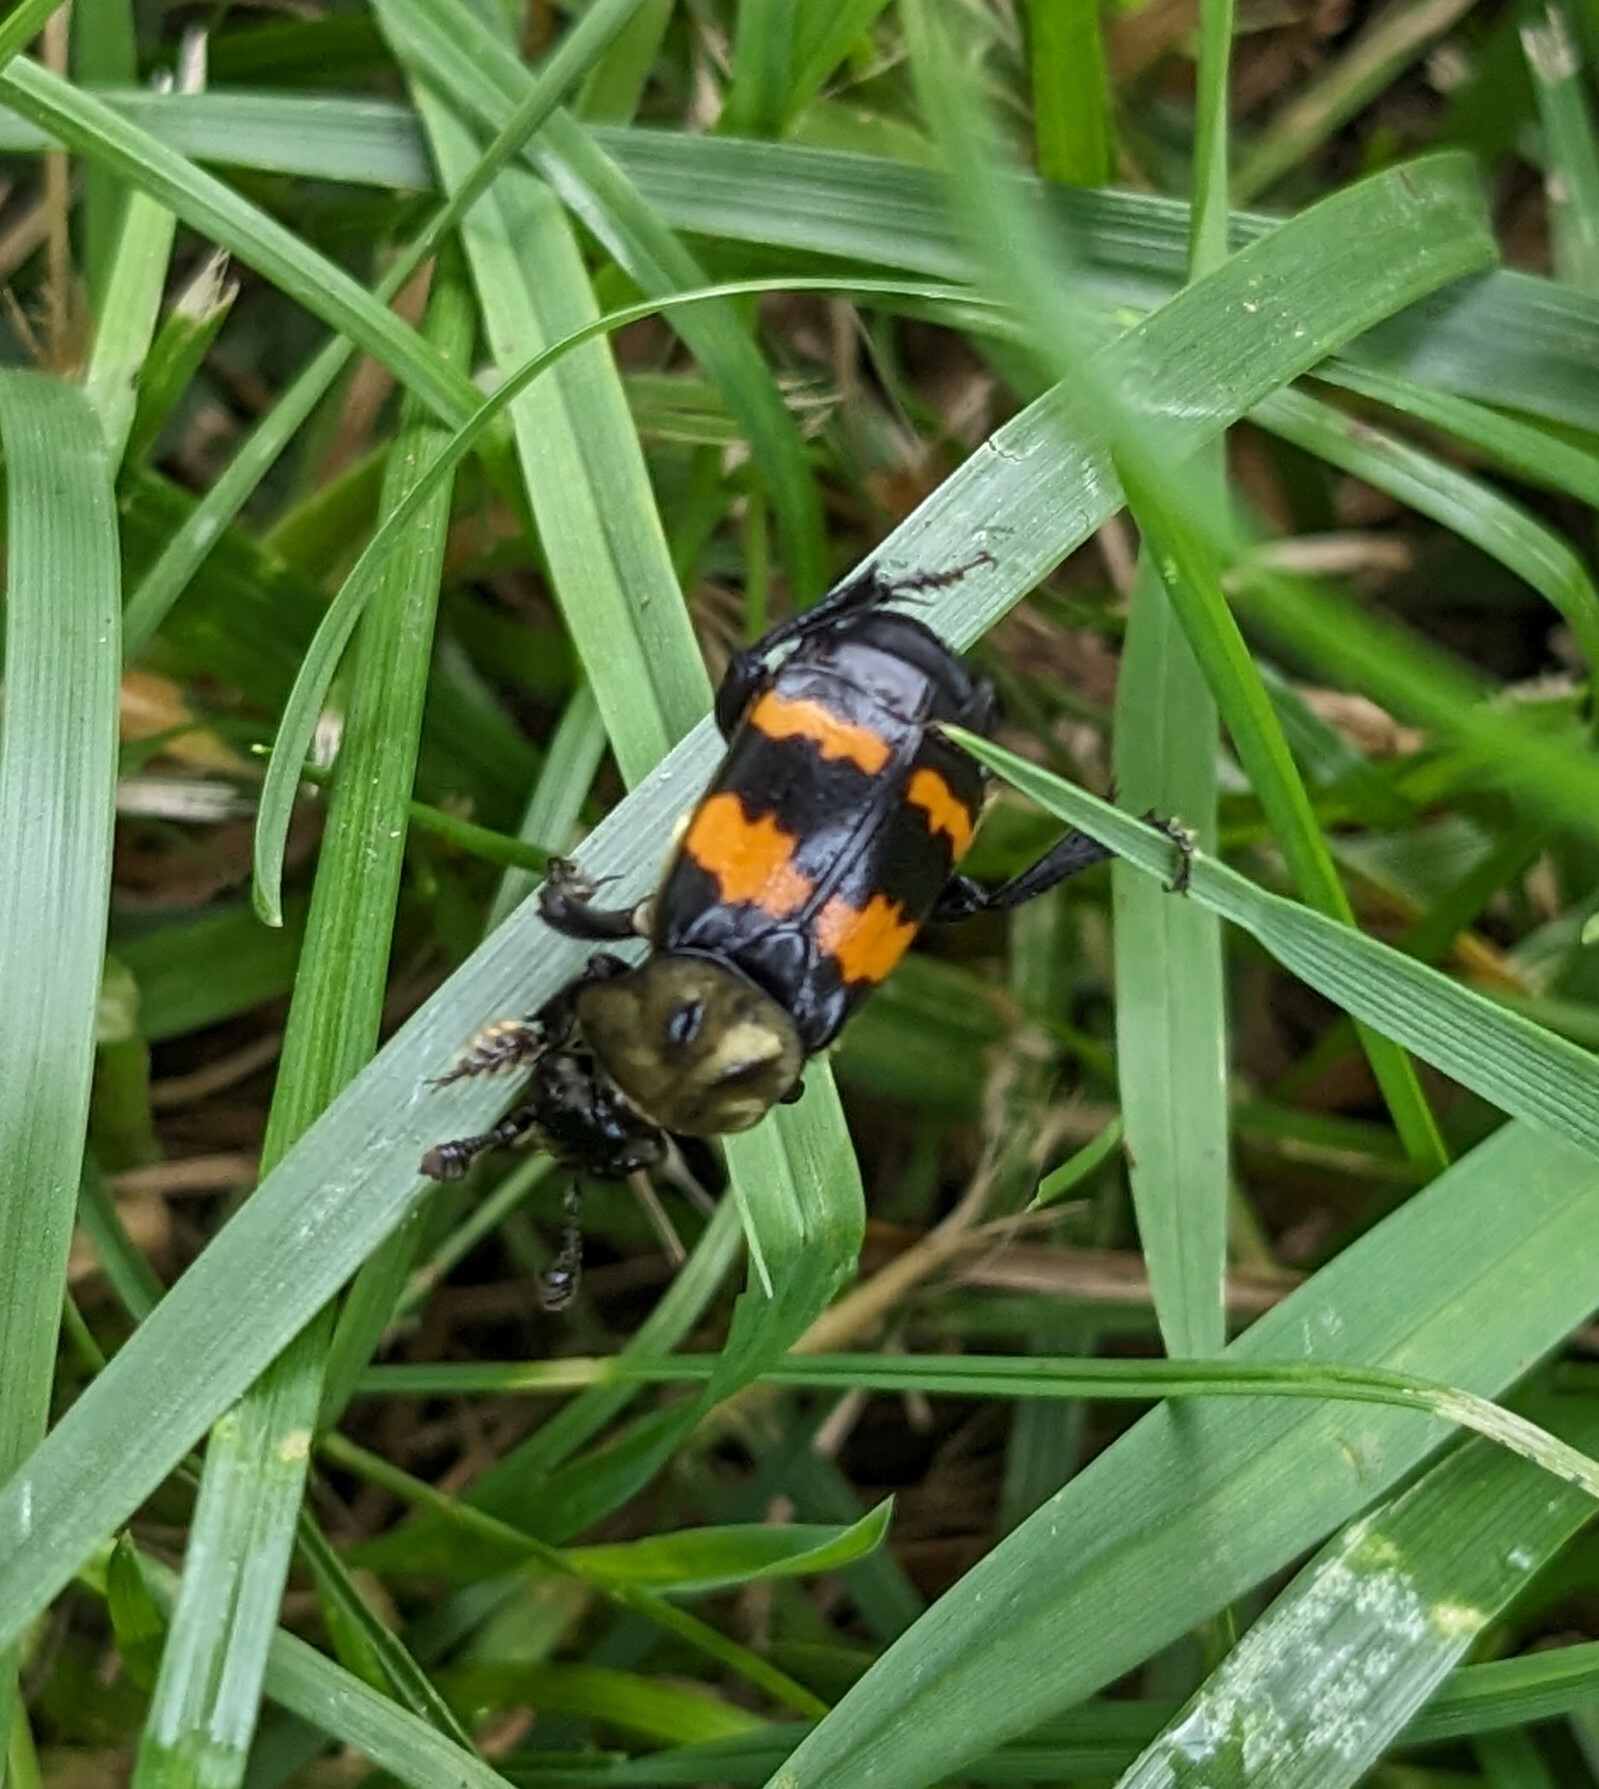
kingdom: Animalia
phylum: Arthropoda
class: Insecta
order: Coleoptera
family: Staphylinidae
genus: Nicrophorus
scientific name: Nicrophorus tomentosus
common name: Tomentose burying beetle
